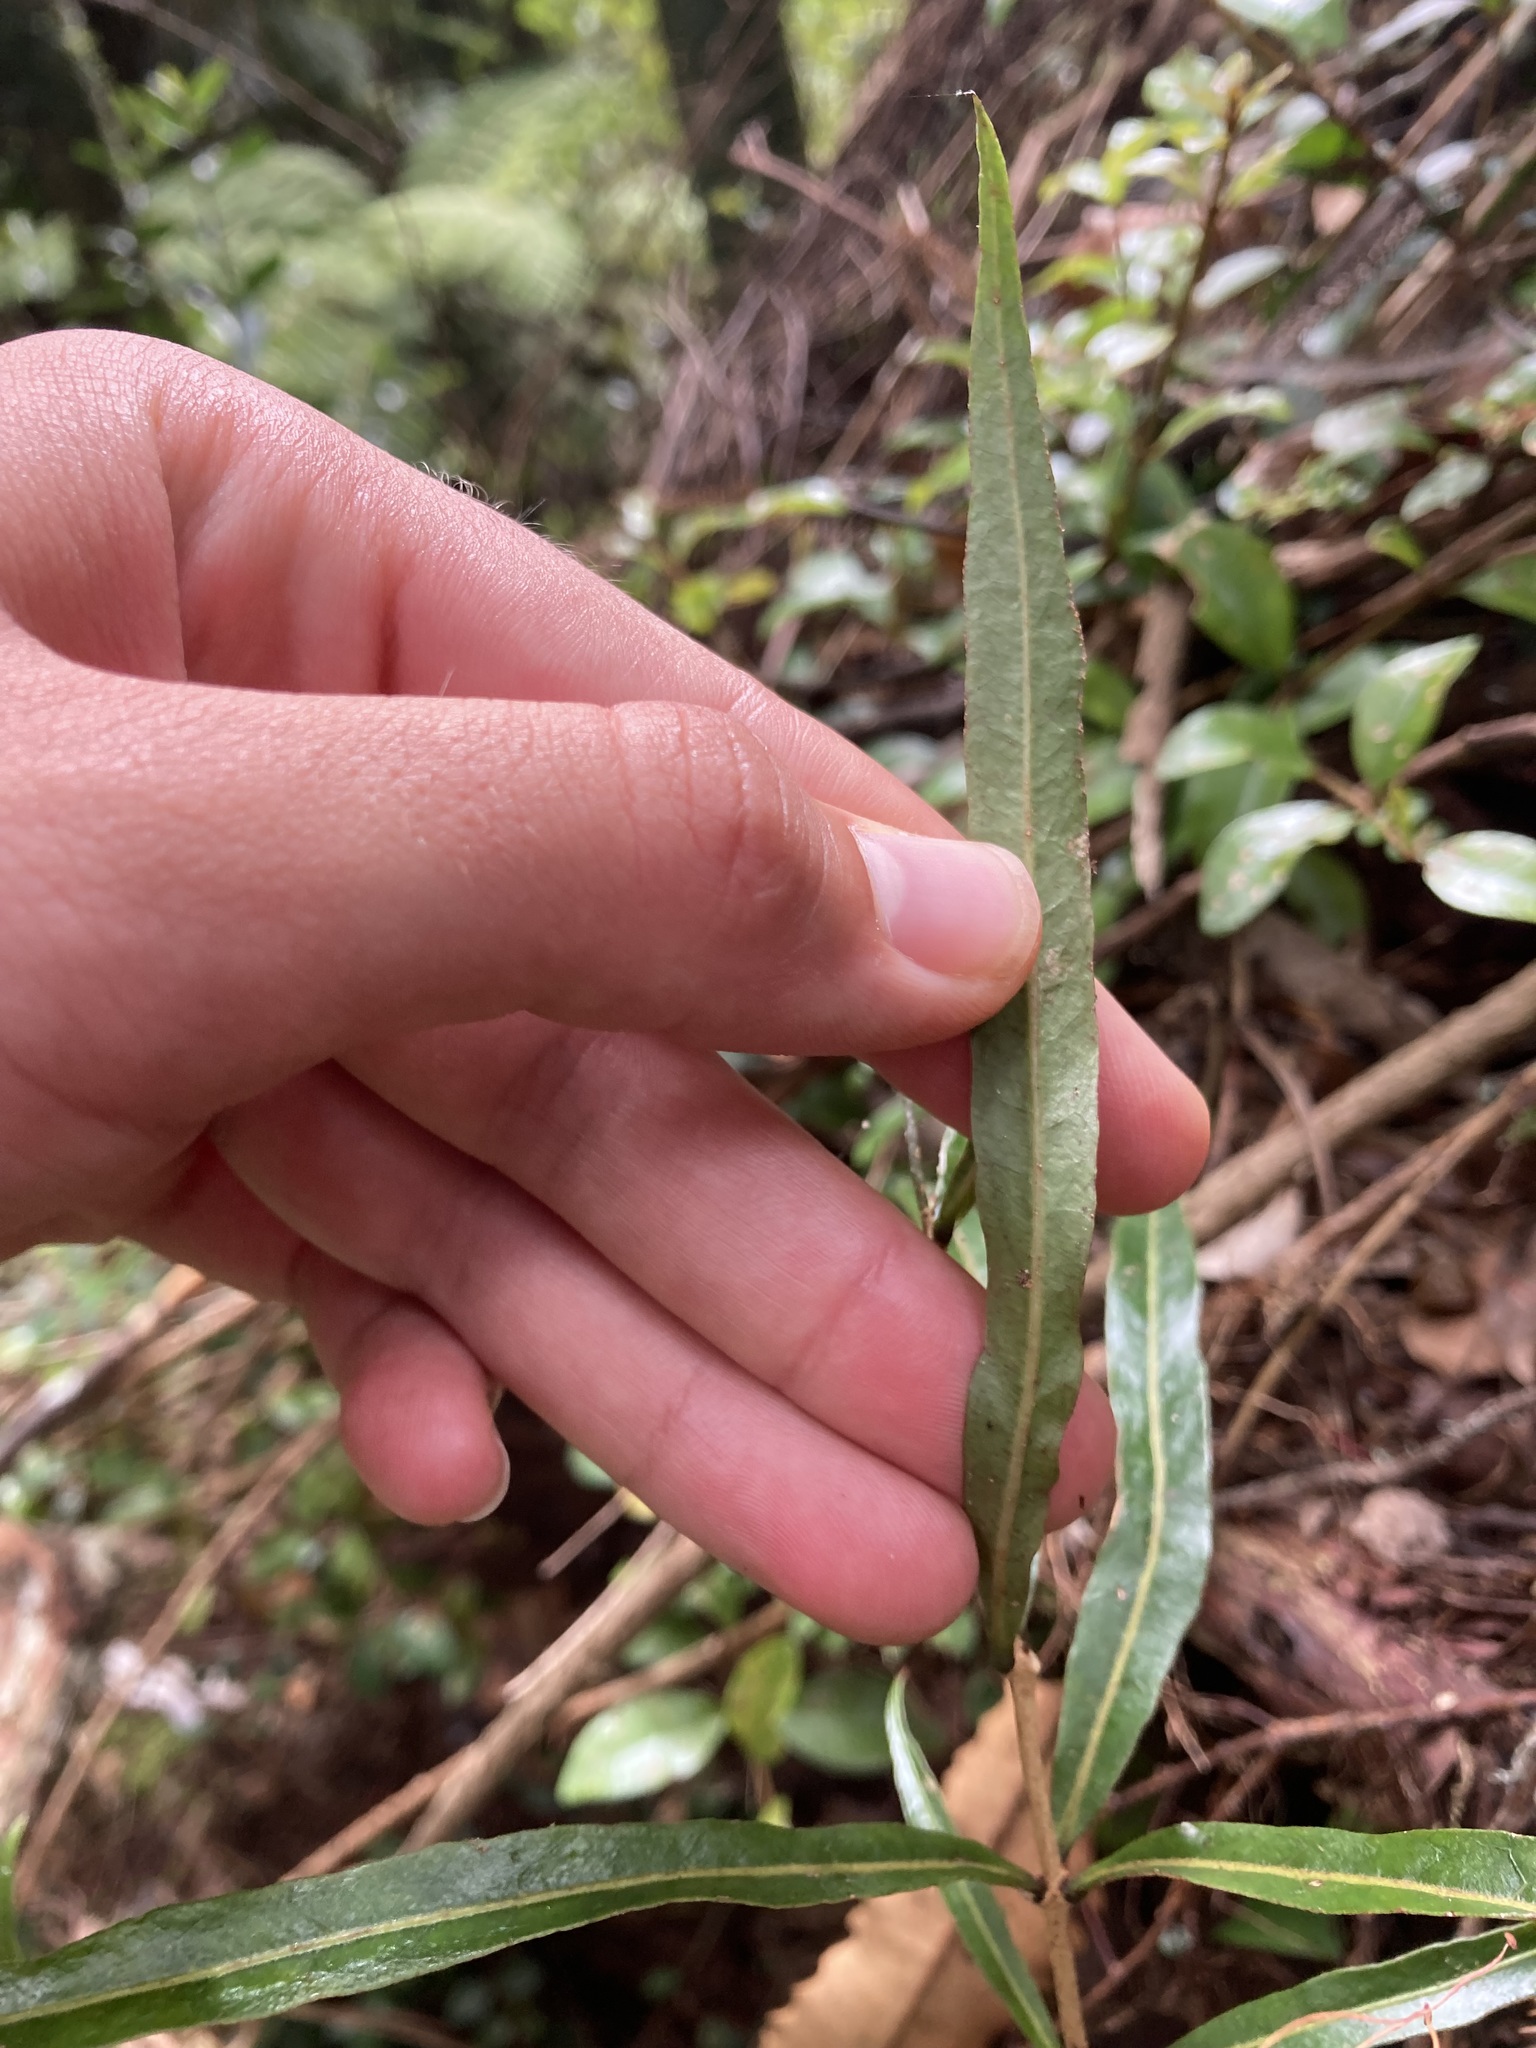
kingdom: Plantae
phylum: Tracheophyta
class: Magnoliopsida
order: Santalales
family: Nanodeaceae
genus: Mida
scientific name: Mida salicifolia
